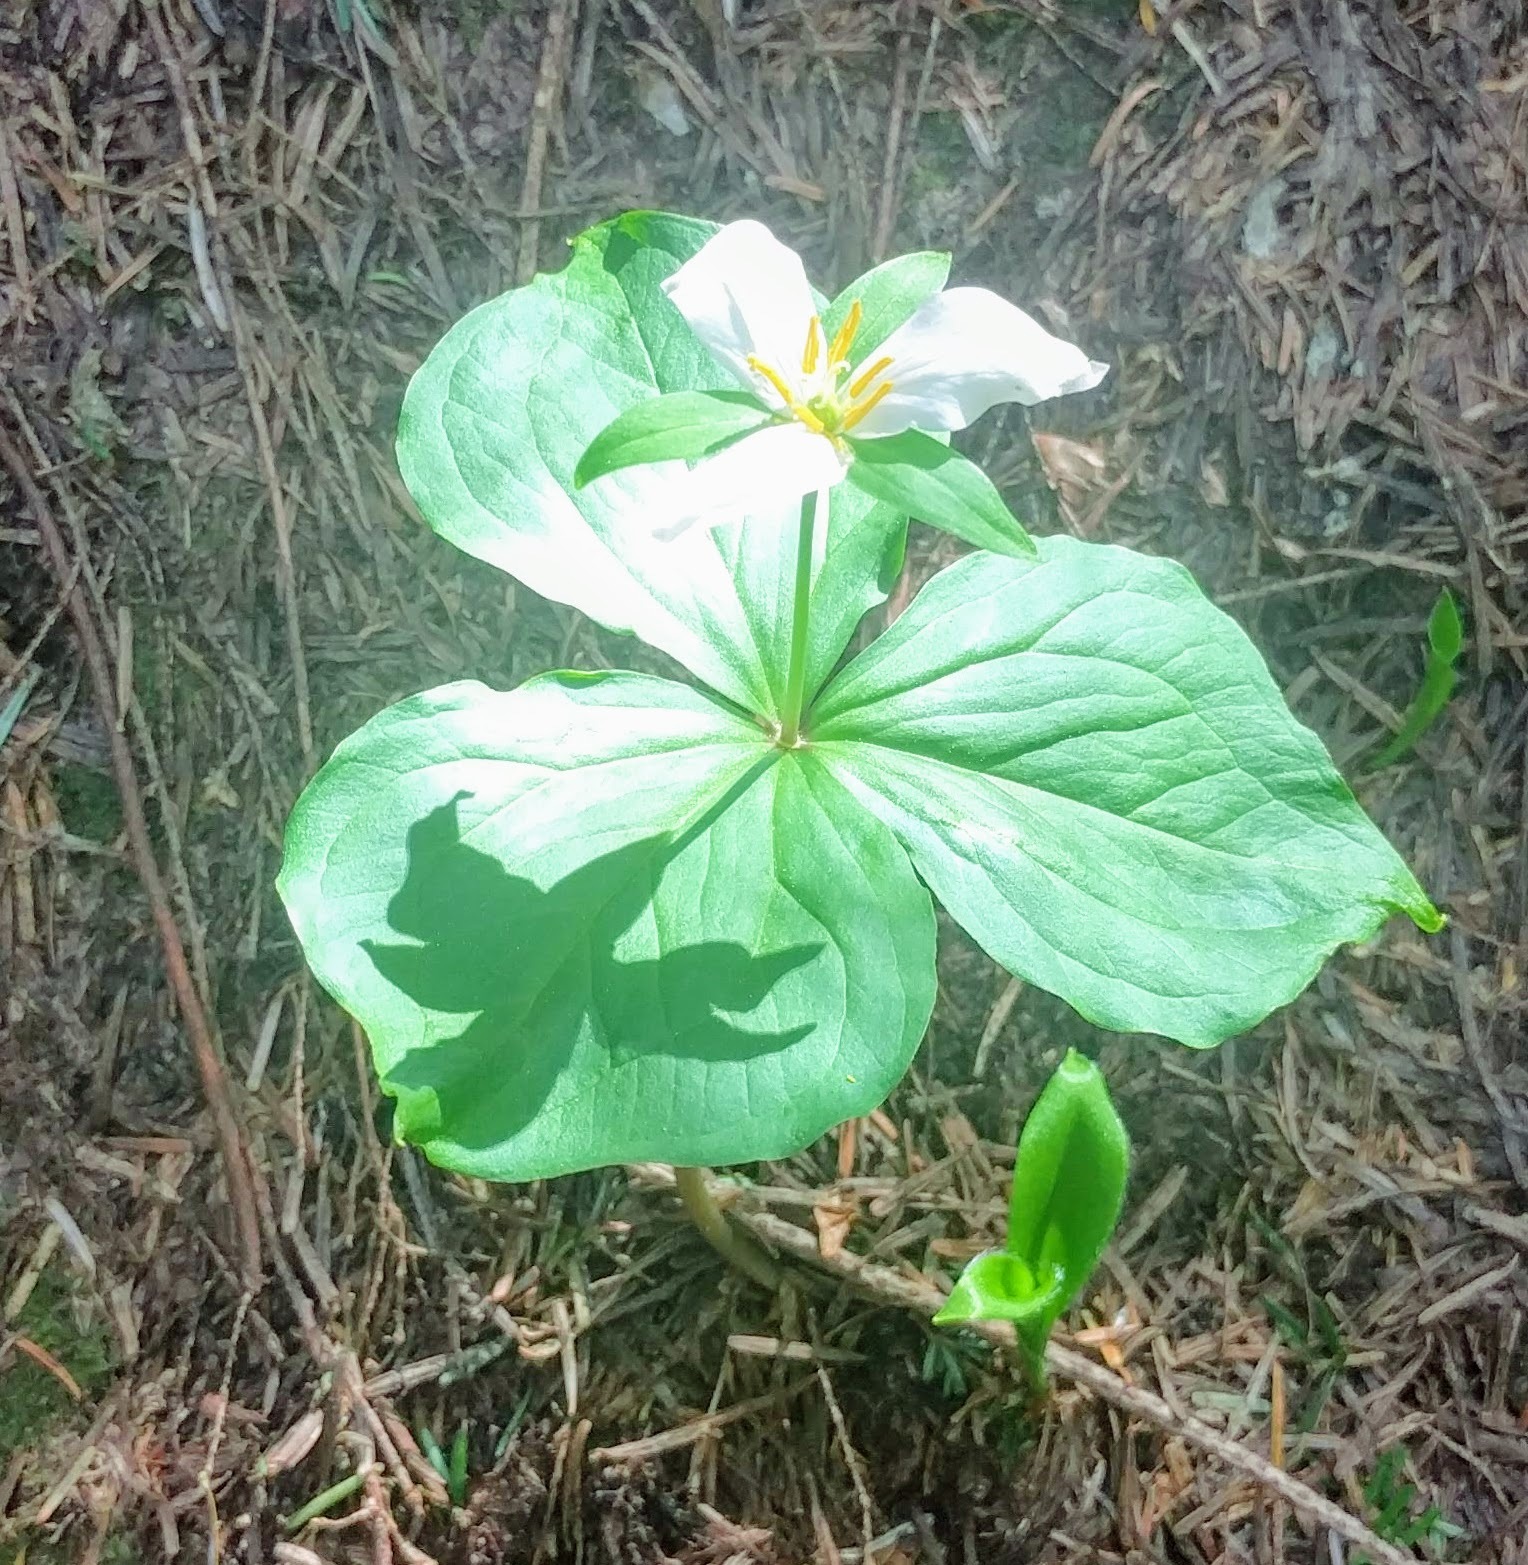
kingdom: Plantae
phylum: Tracheophyta
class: Liliopsida
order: Liliales
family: Melanthiaceae
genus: Trillium
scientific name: Trillium ovatum
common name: Pacific trillium
